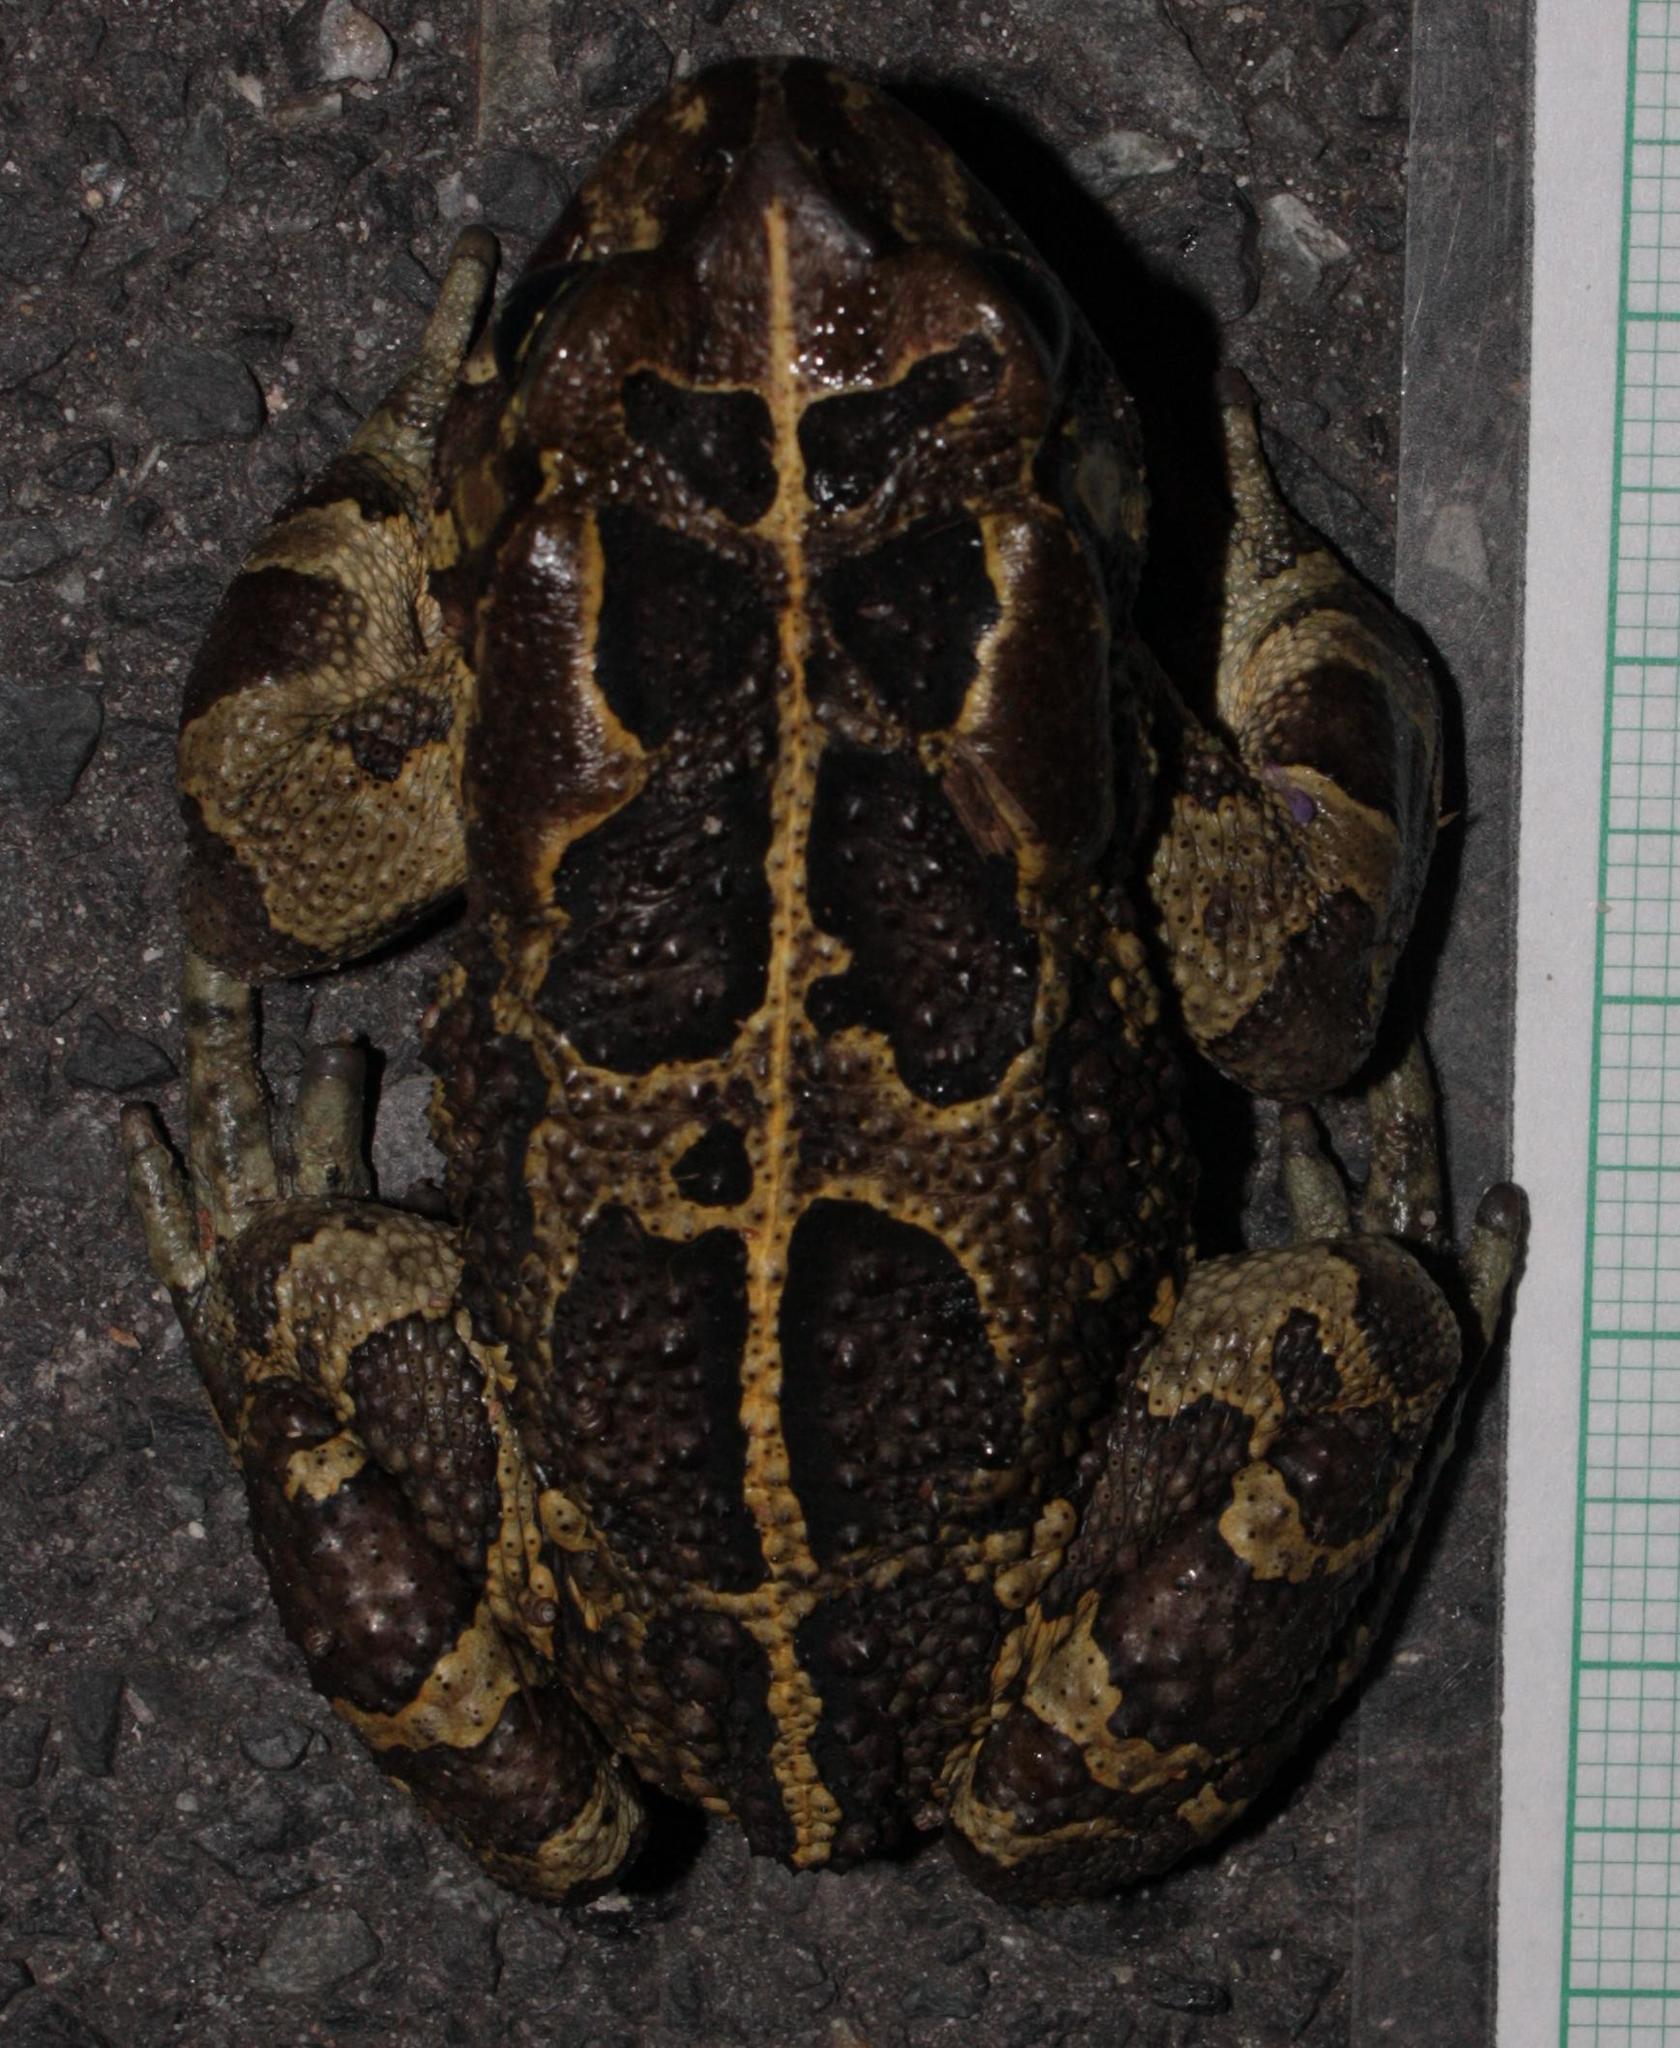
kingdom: Animalia
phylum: Chordata
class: Amphibia
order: Anura
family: Bufonidae
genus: Sclerophrys
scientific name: Sclerophrys pantherina
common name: Panther toad
